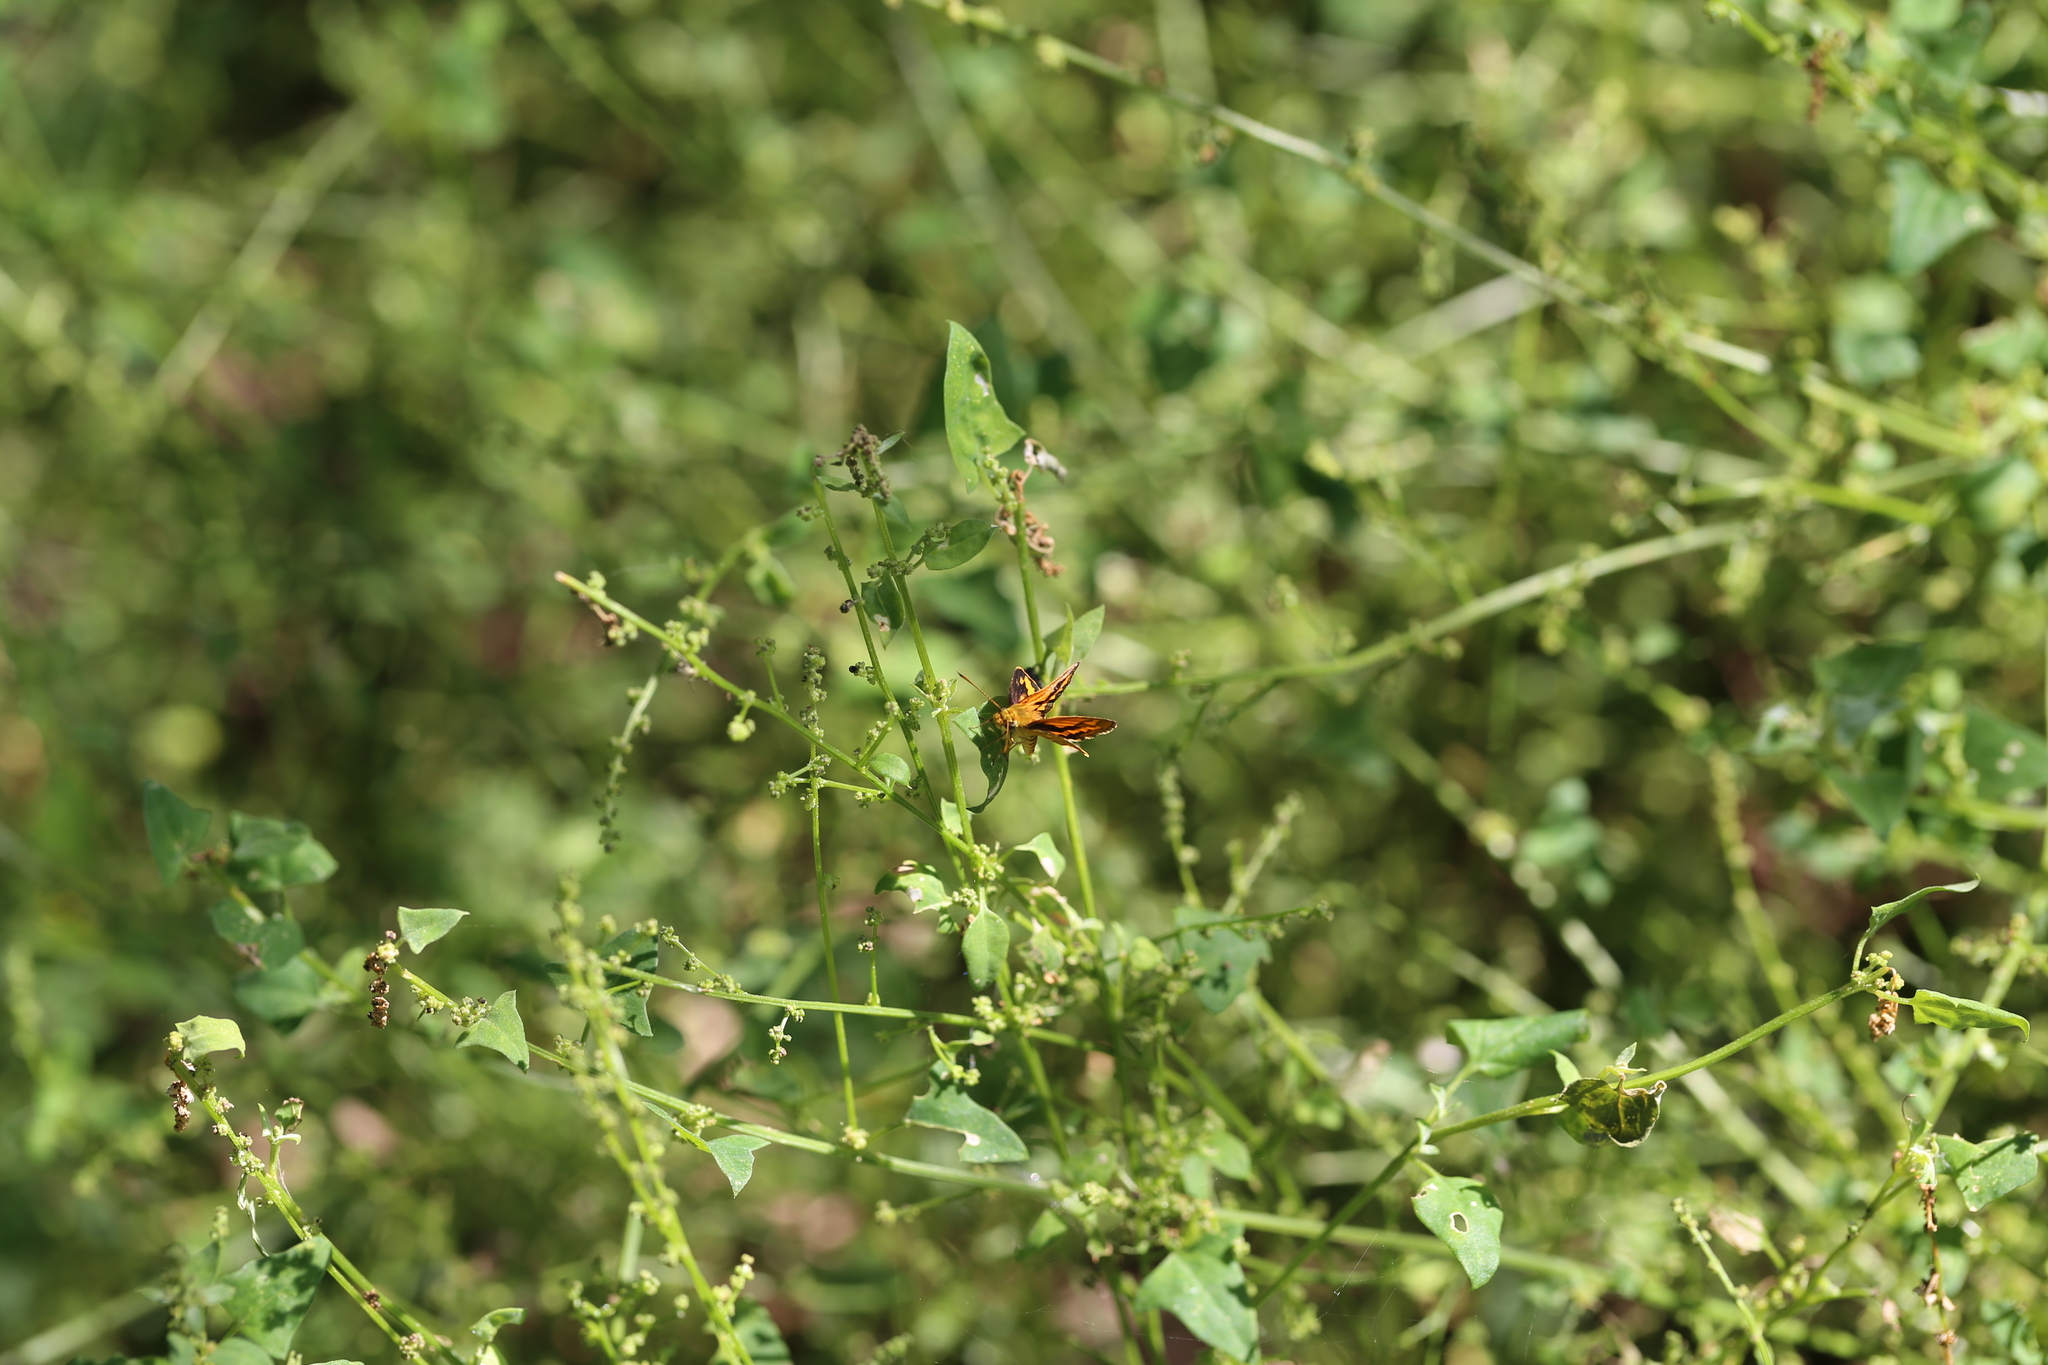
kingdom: Animalia
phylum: Arthropoda
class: Insecta
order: Lepidoptera
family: Hesperiidae
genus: Suniana
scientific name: Suniana sunias
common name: Wide-brand grass-dart
